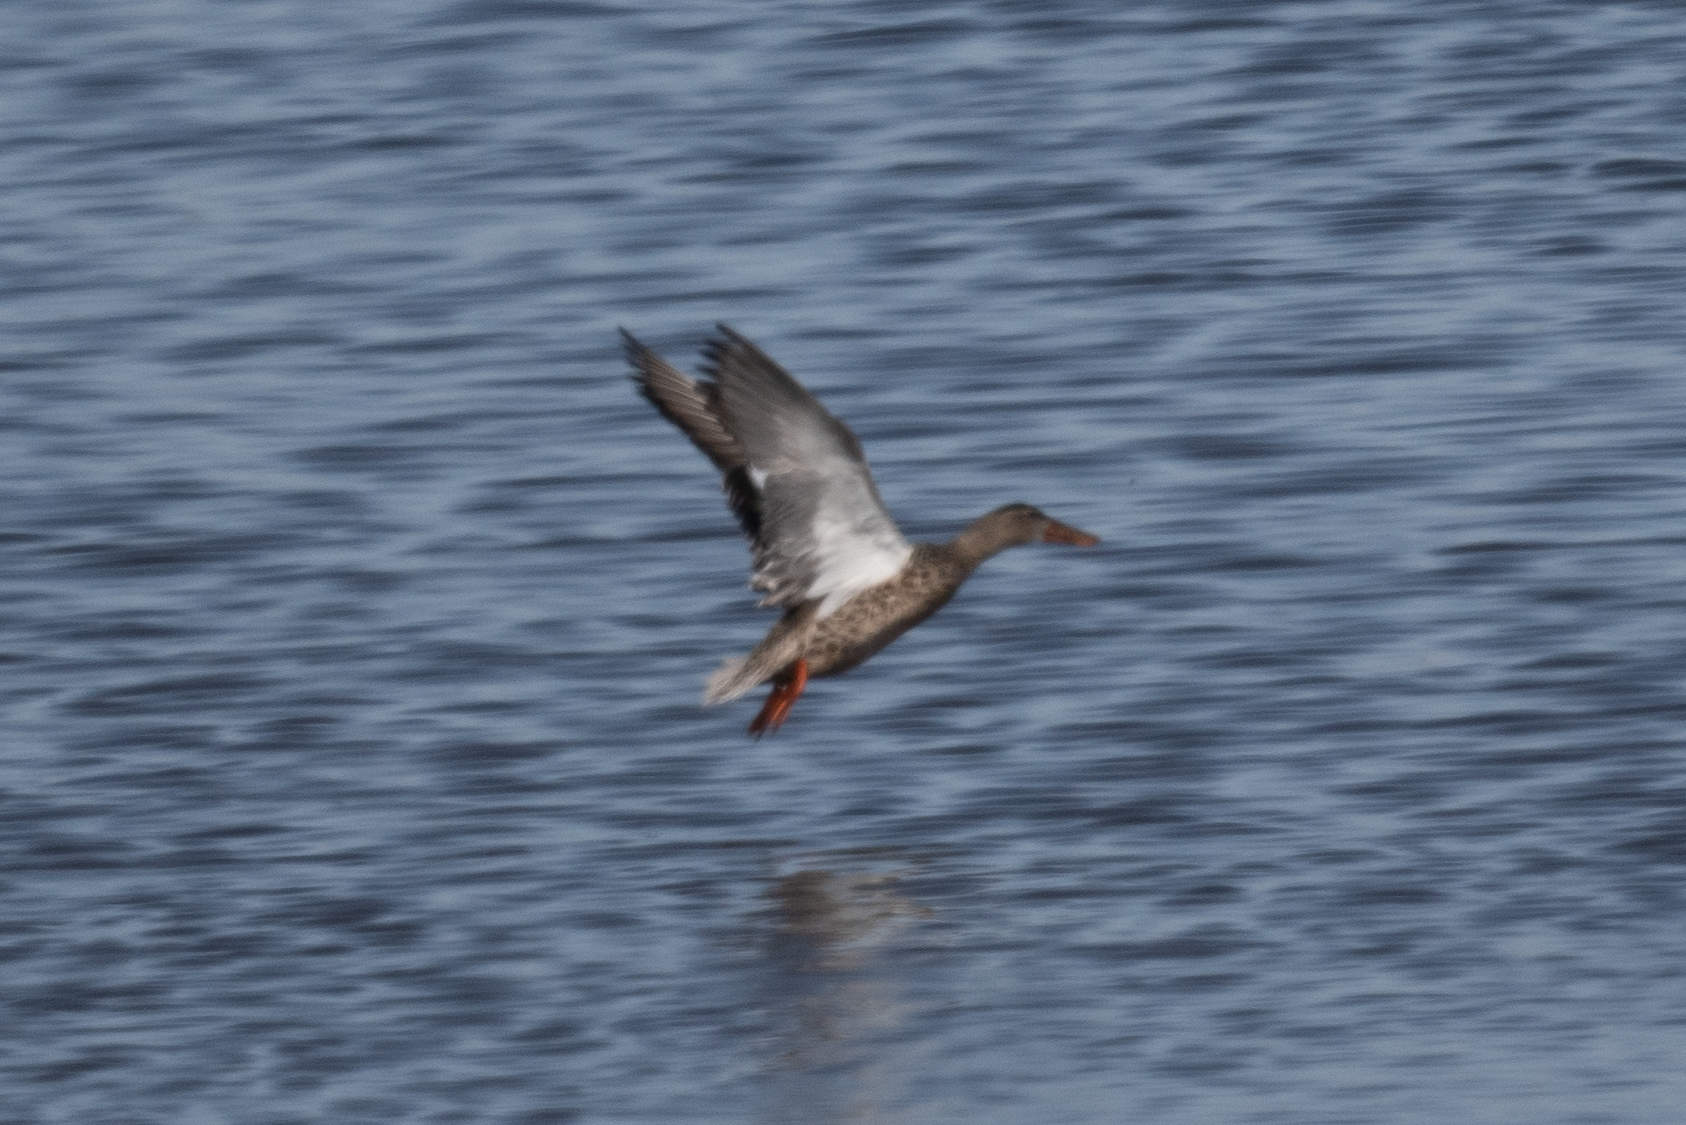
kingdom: Animalia
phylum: Chordata
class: Aves
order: Anseriformes
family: Anatidae
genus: Spatula
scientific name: Spatula clypeata
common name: Northern shoveler
